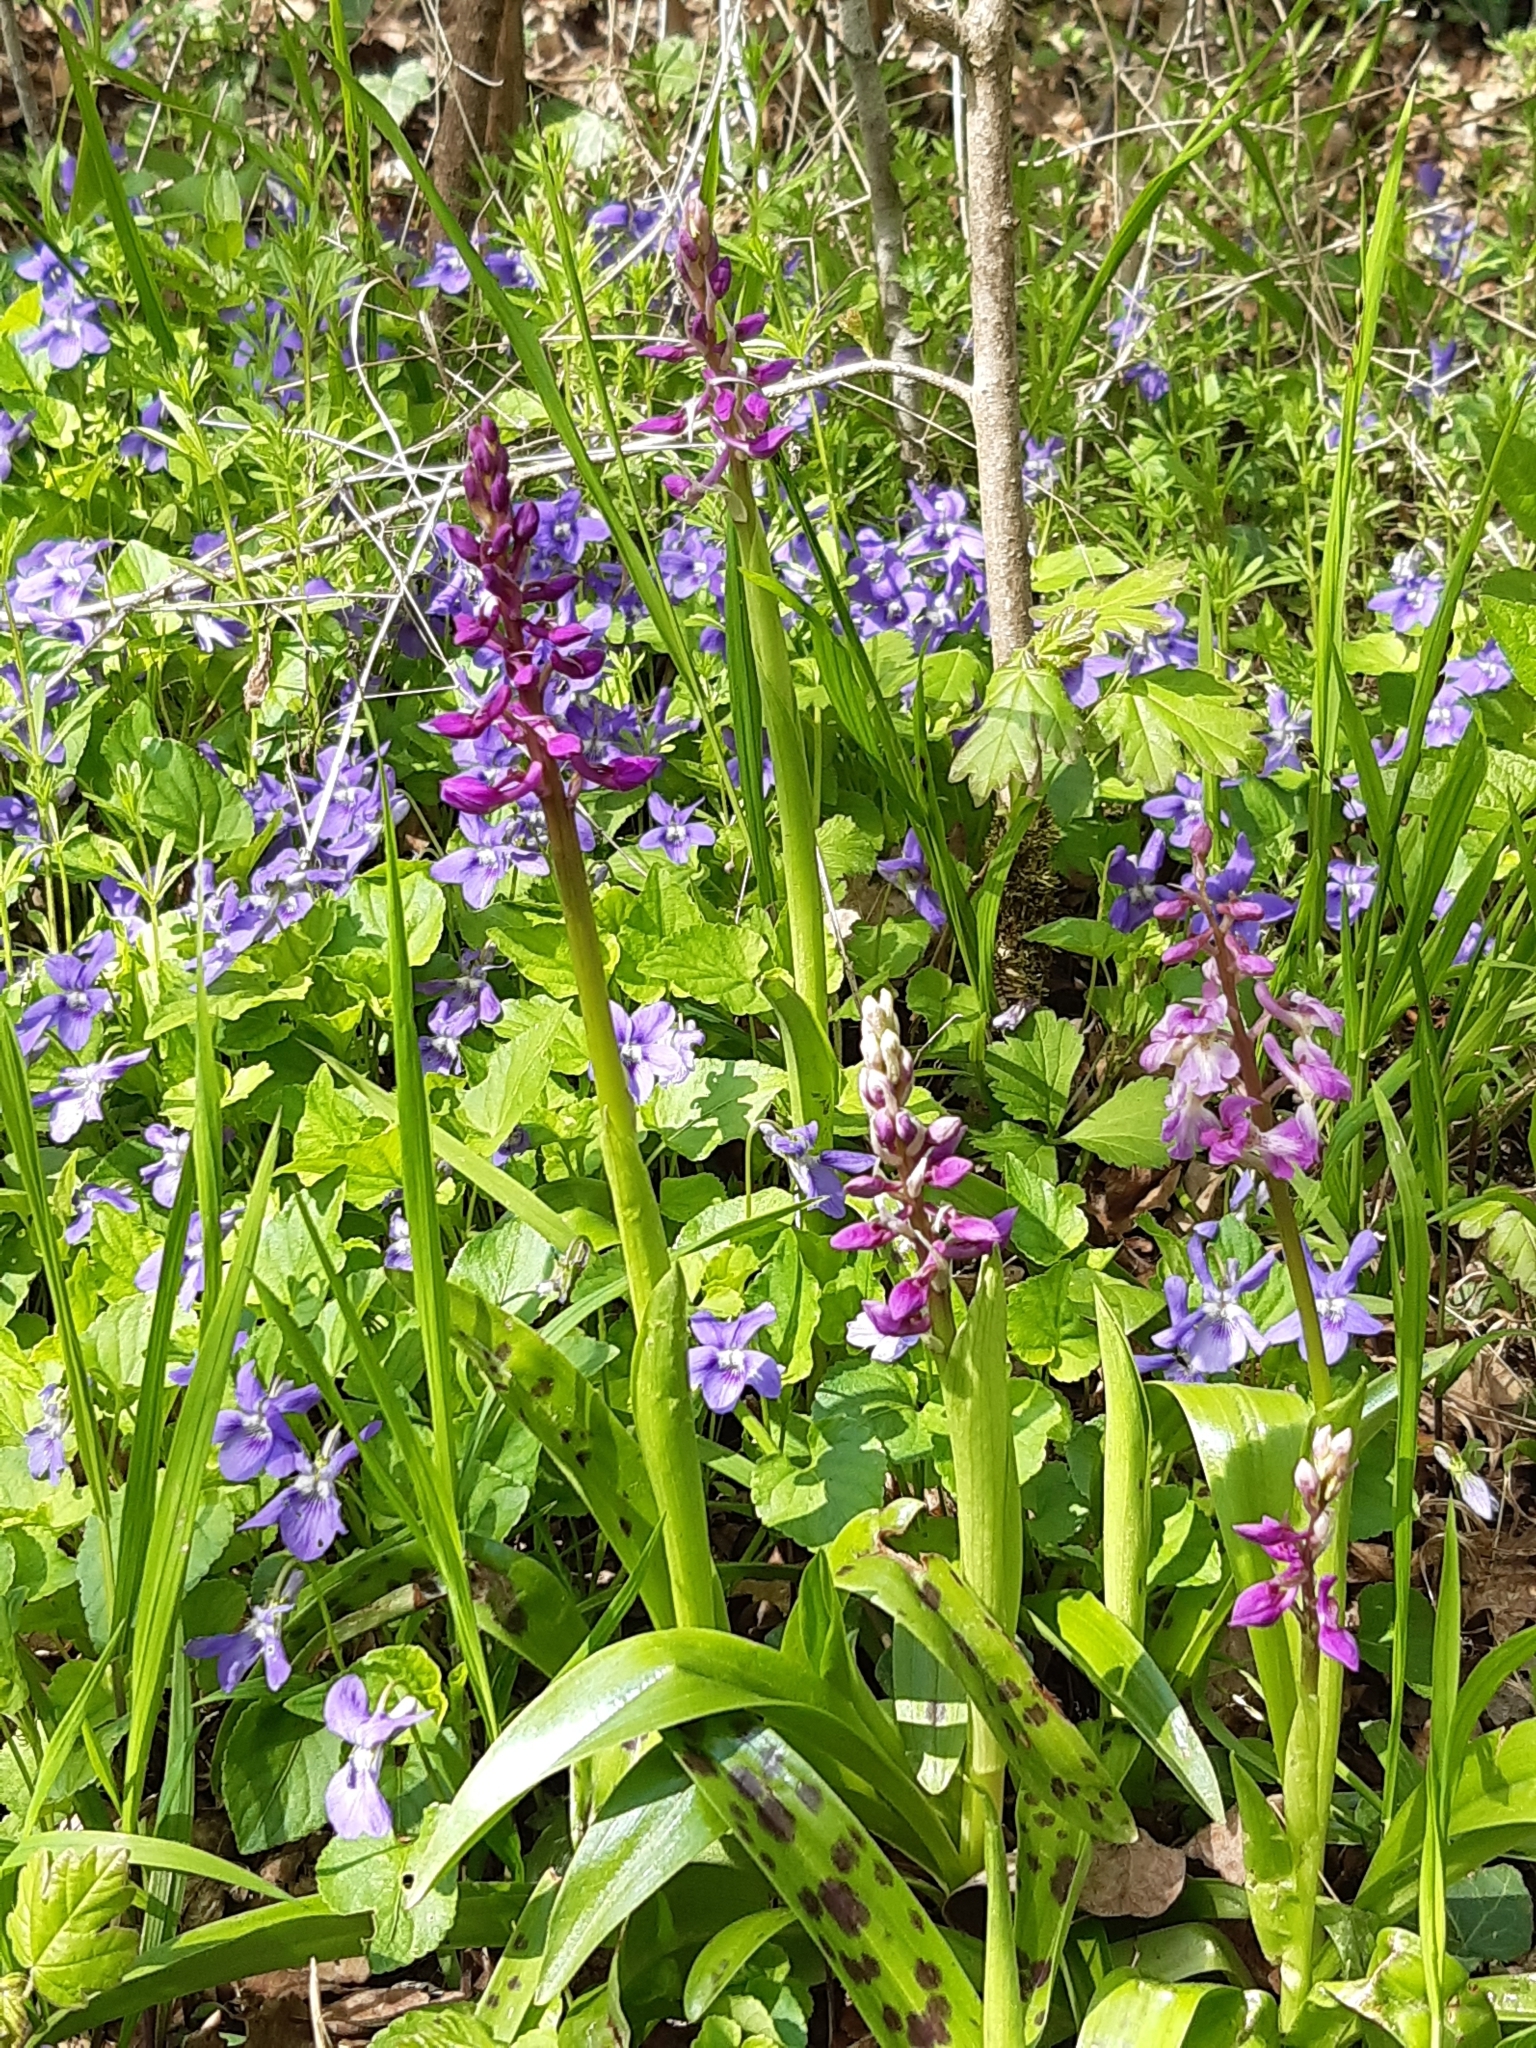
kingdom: Plantae
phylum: Tracheophyta
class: Liliopsida
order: Asparagales
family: Orchidaceae
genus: Orchis
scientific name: Orchis mascula
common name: Early-purple orchid
